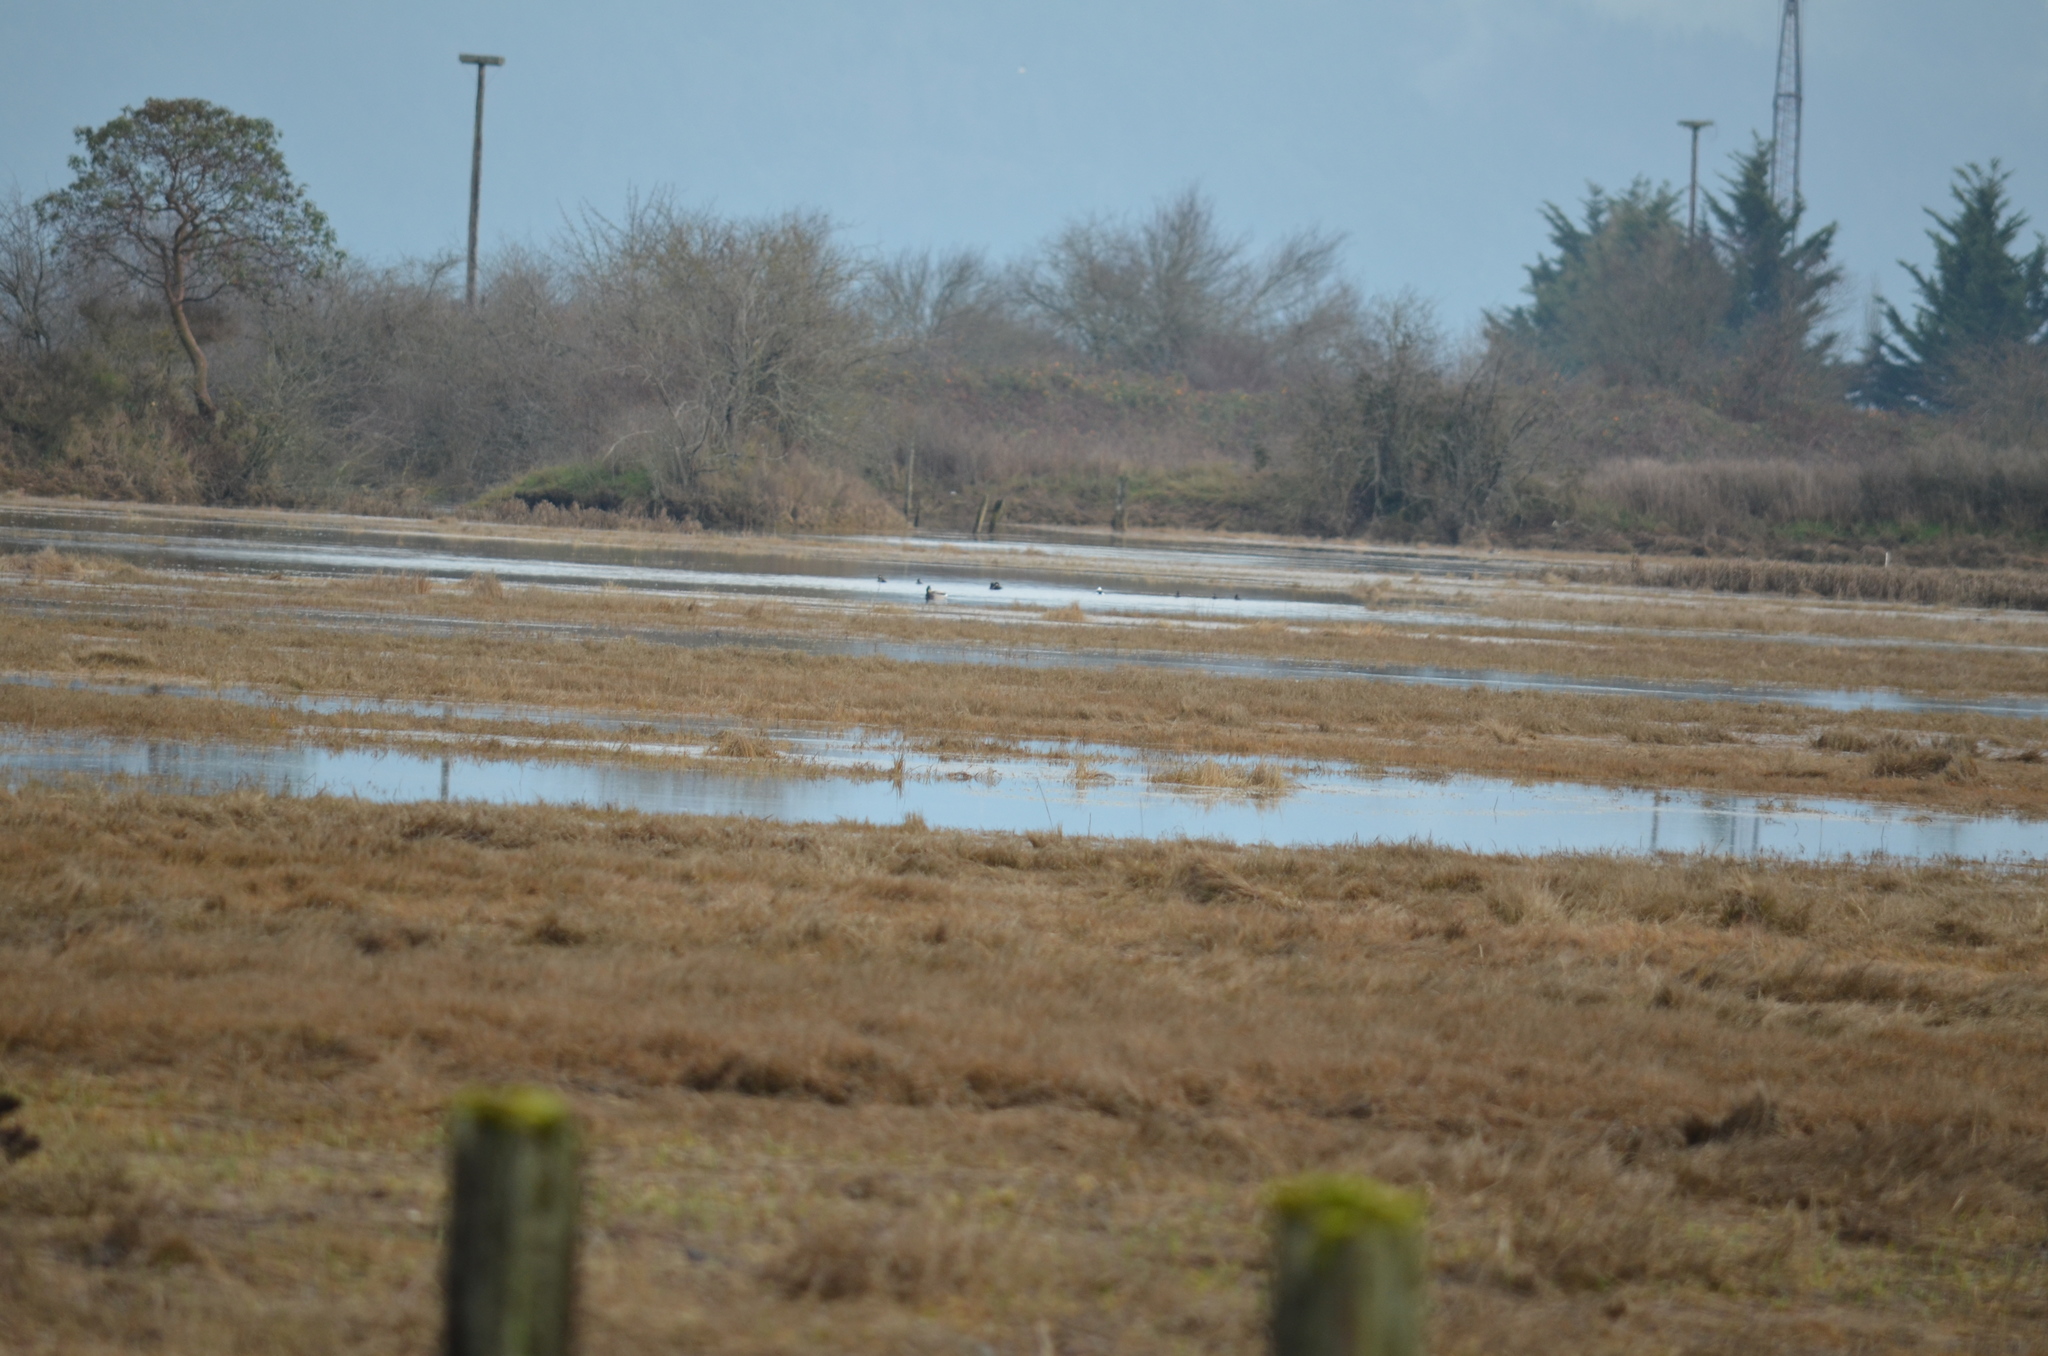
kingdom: Animalia
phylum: Chordata
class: Aves
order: Anseriformes
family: Anatidae
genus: Anas
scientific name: Anas platyrhynchos
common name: Mallard
